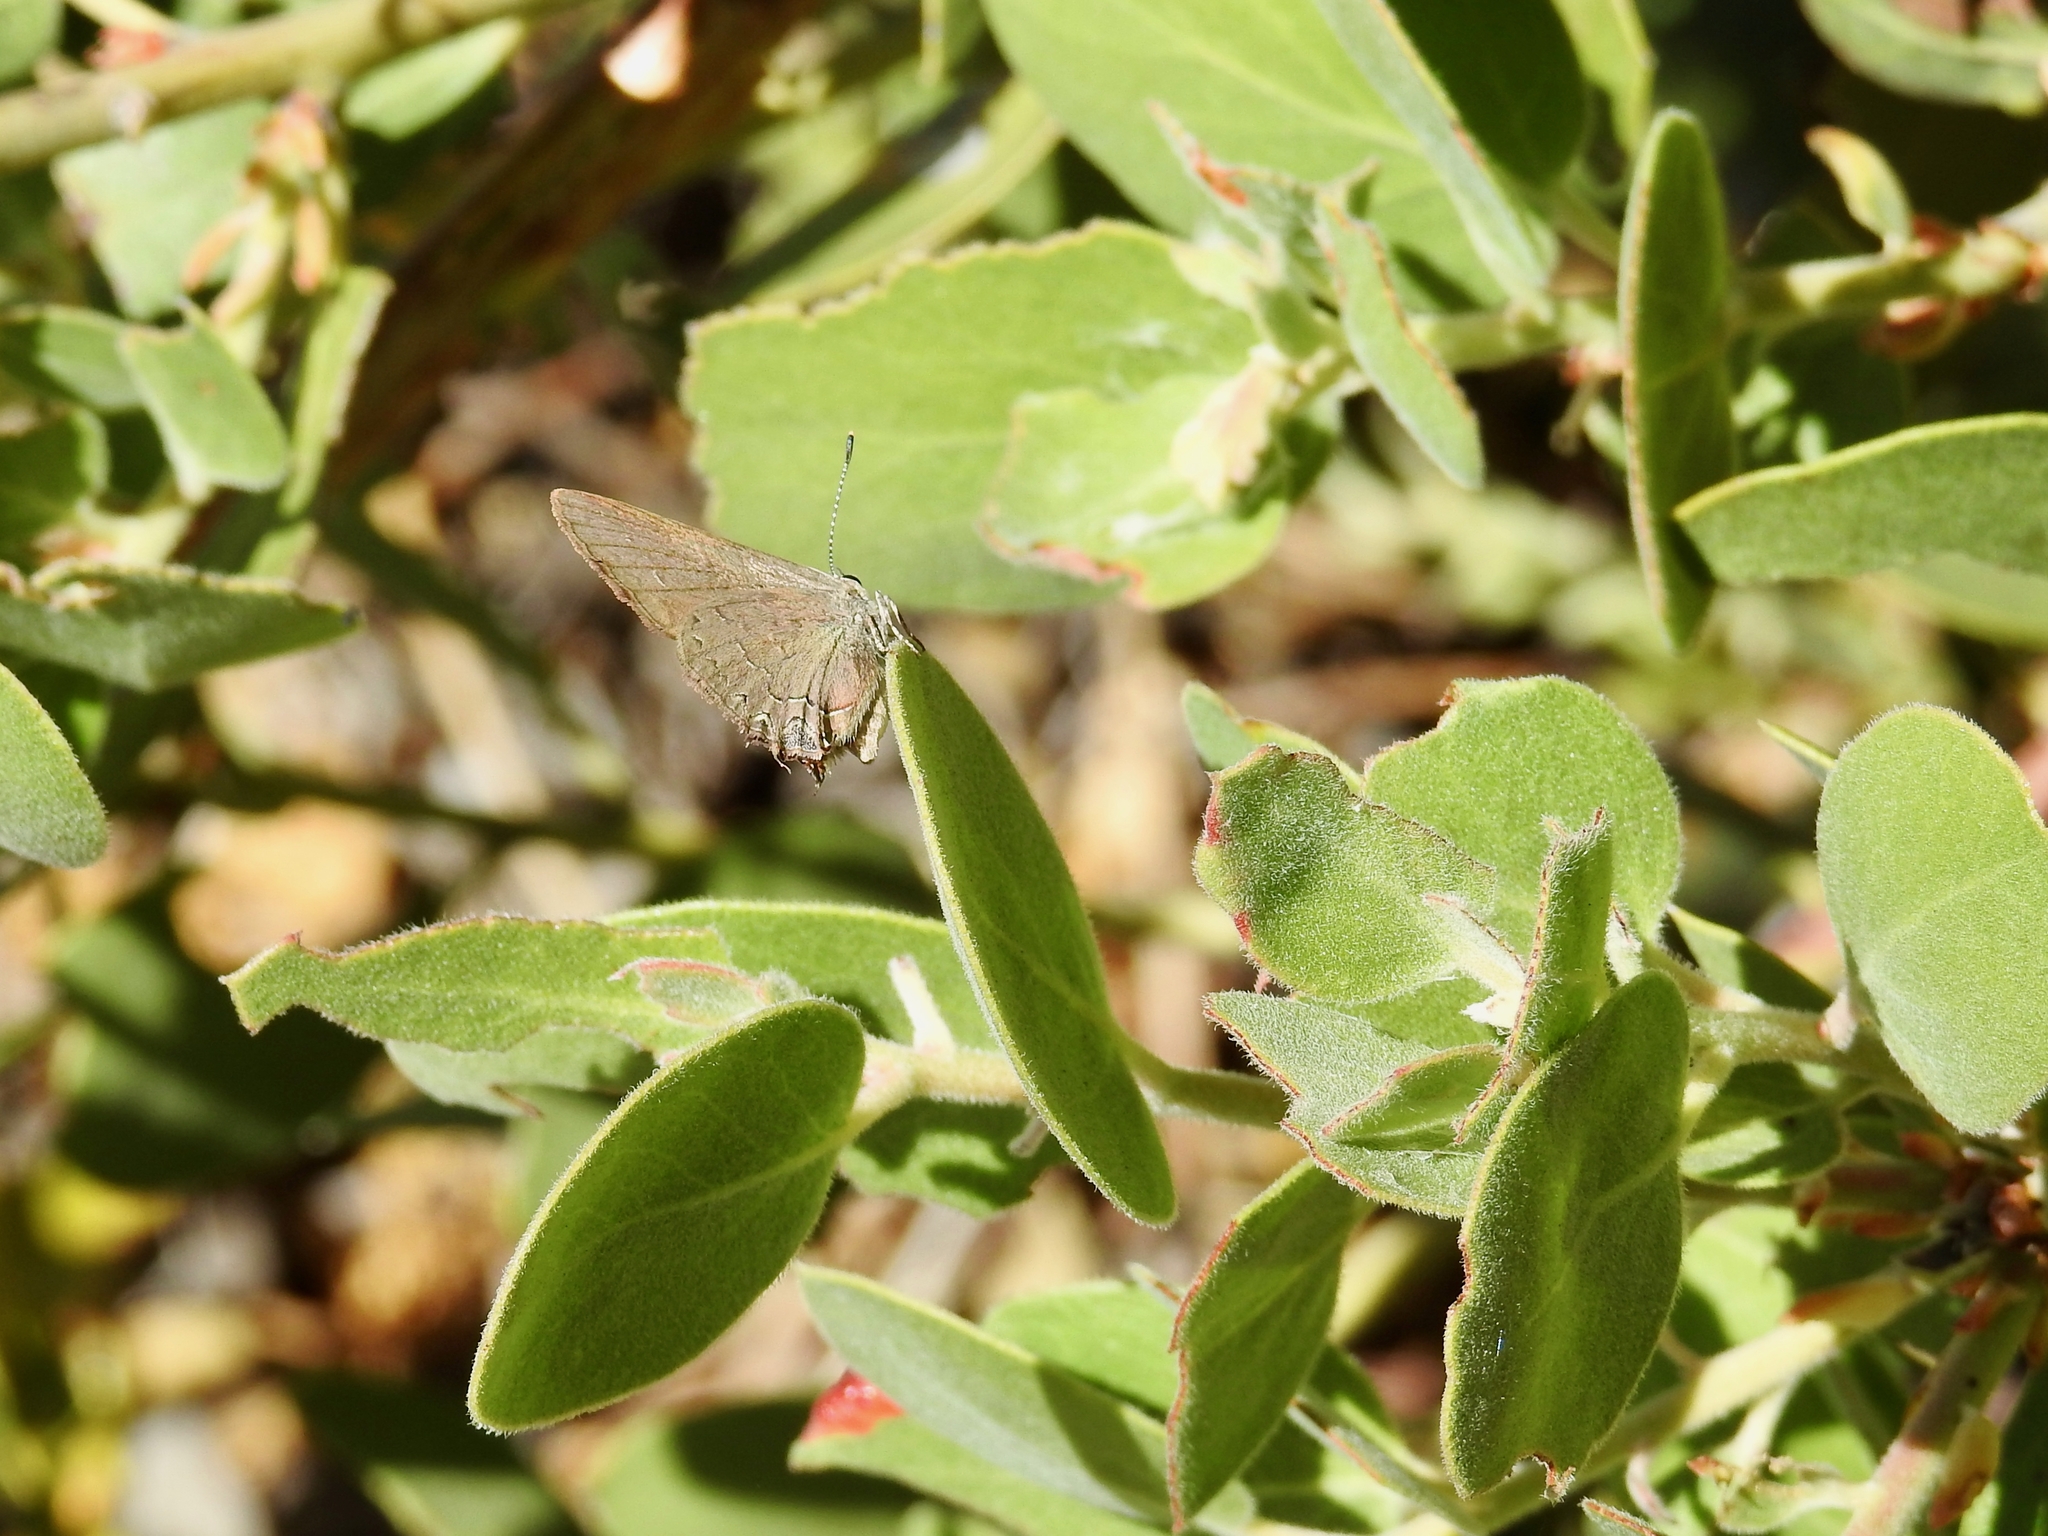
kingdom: Animalia
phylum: Arthropoda
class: Insecta
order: Lepidoptera
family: Lycaenidae
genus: Strymon
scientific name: Strymon saepium
